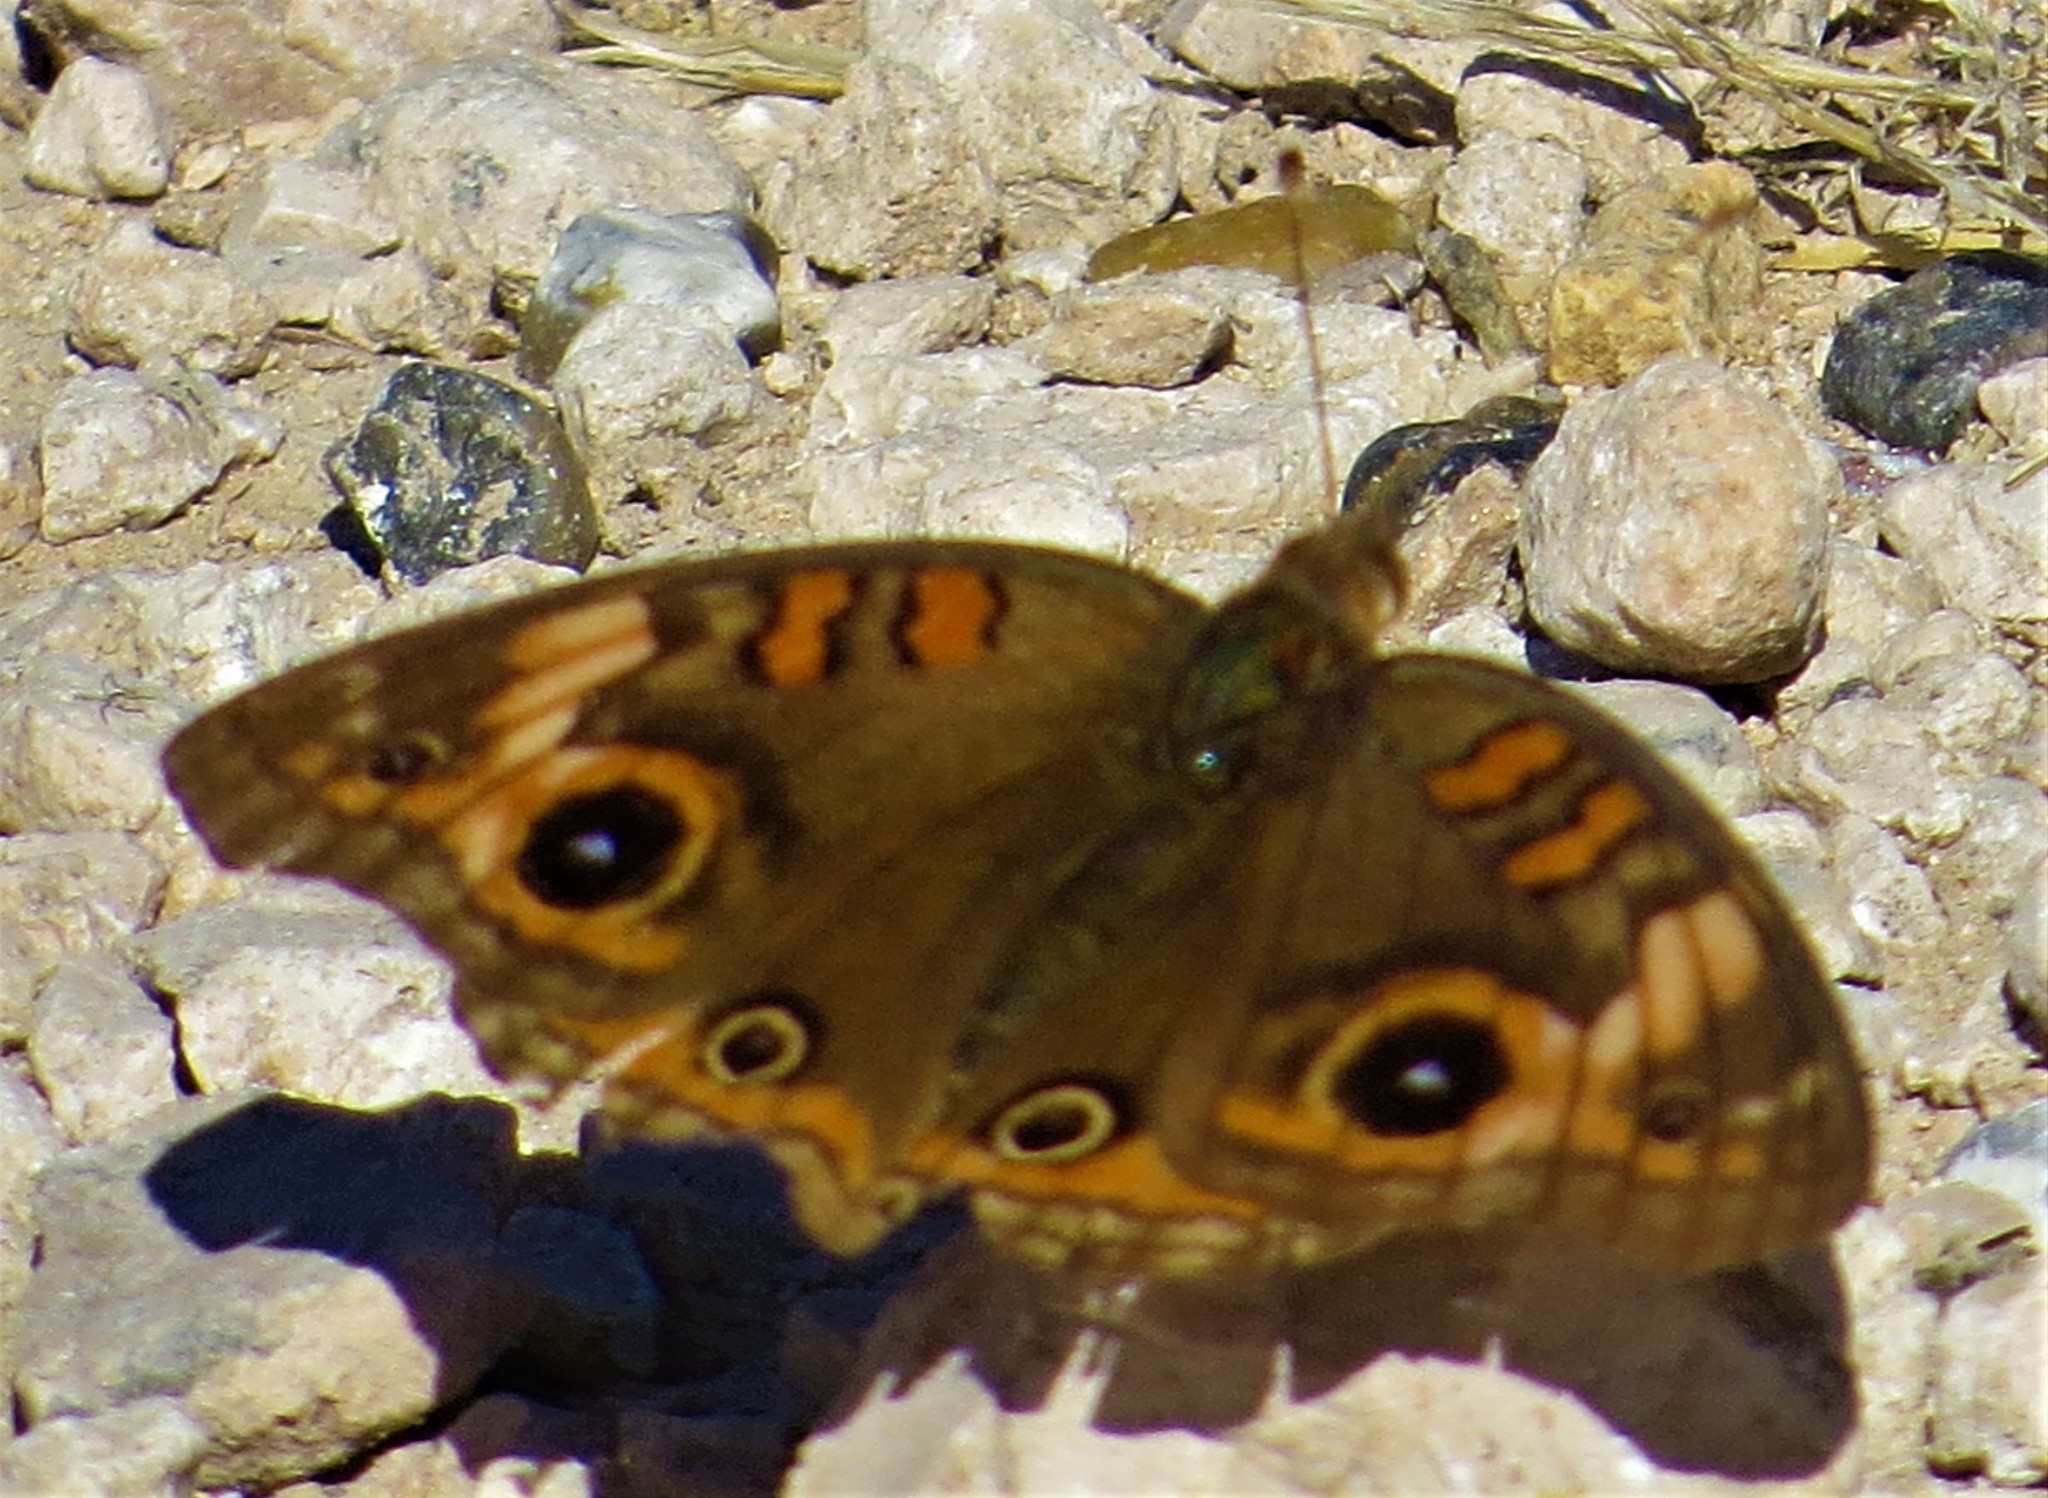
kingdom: Animalia
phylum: Arthropoda
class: Insecta
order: Lepidoptera
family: Nymphalidae
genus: Junonia
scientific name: Junonia stemosa
